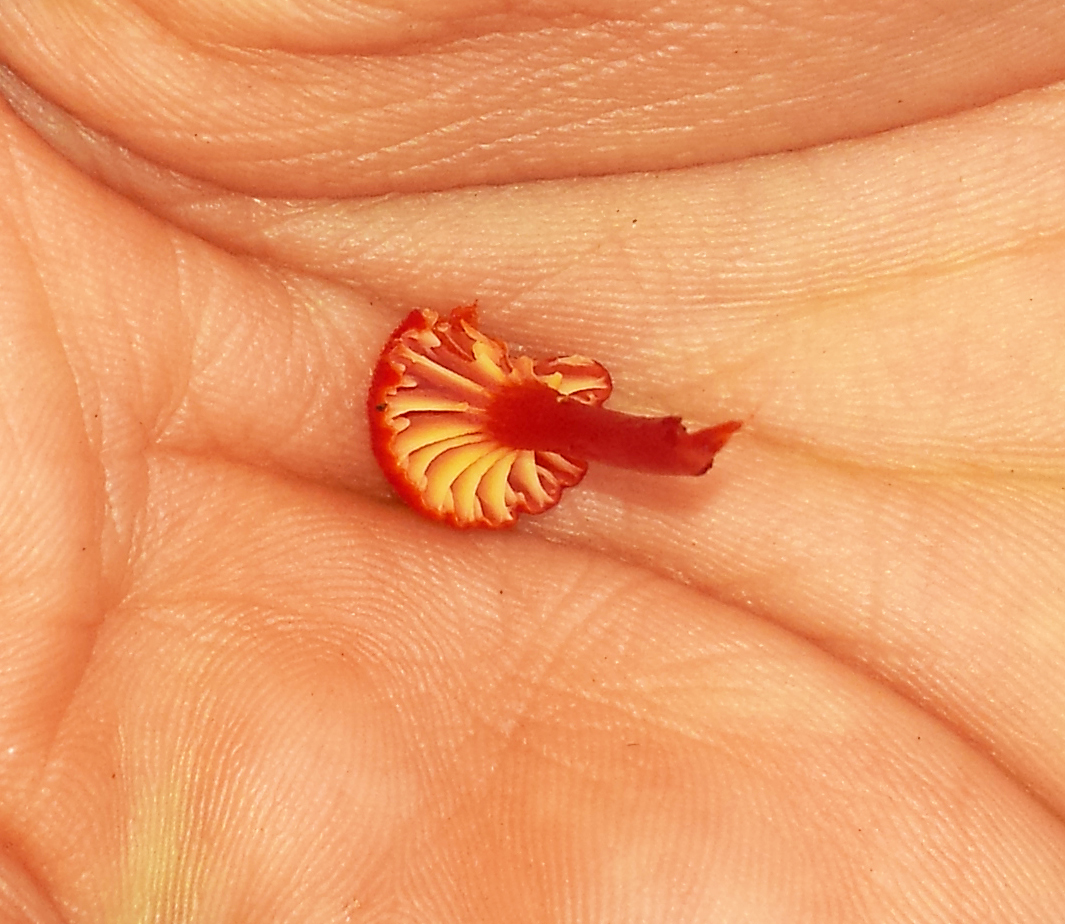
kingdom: Fungi
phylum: Basidiomycota
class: Agaricomycetes
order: Agaricales
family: Hygrophoraceae
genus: Hygrocybe
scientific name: Hygrocybe cantharellus
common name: Goblet waxcap
